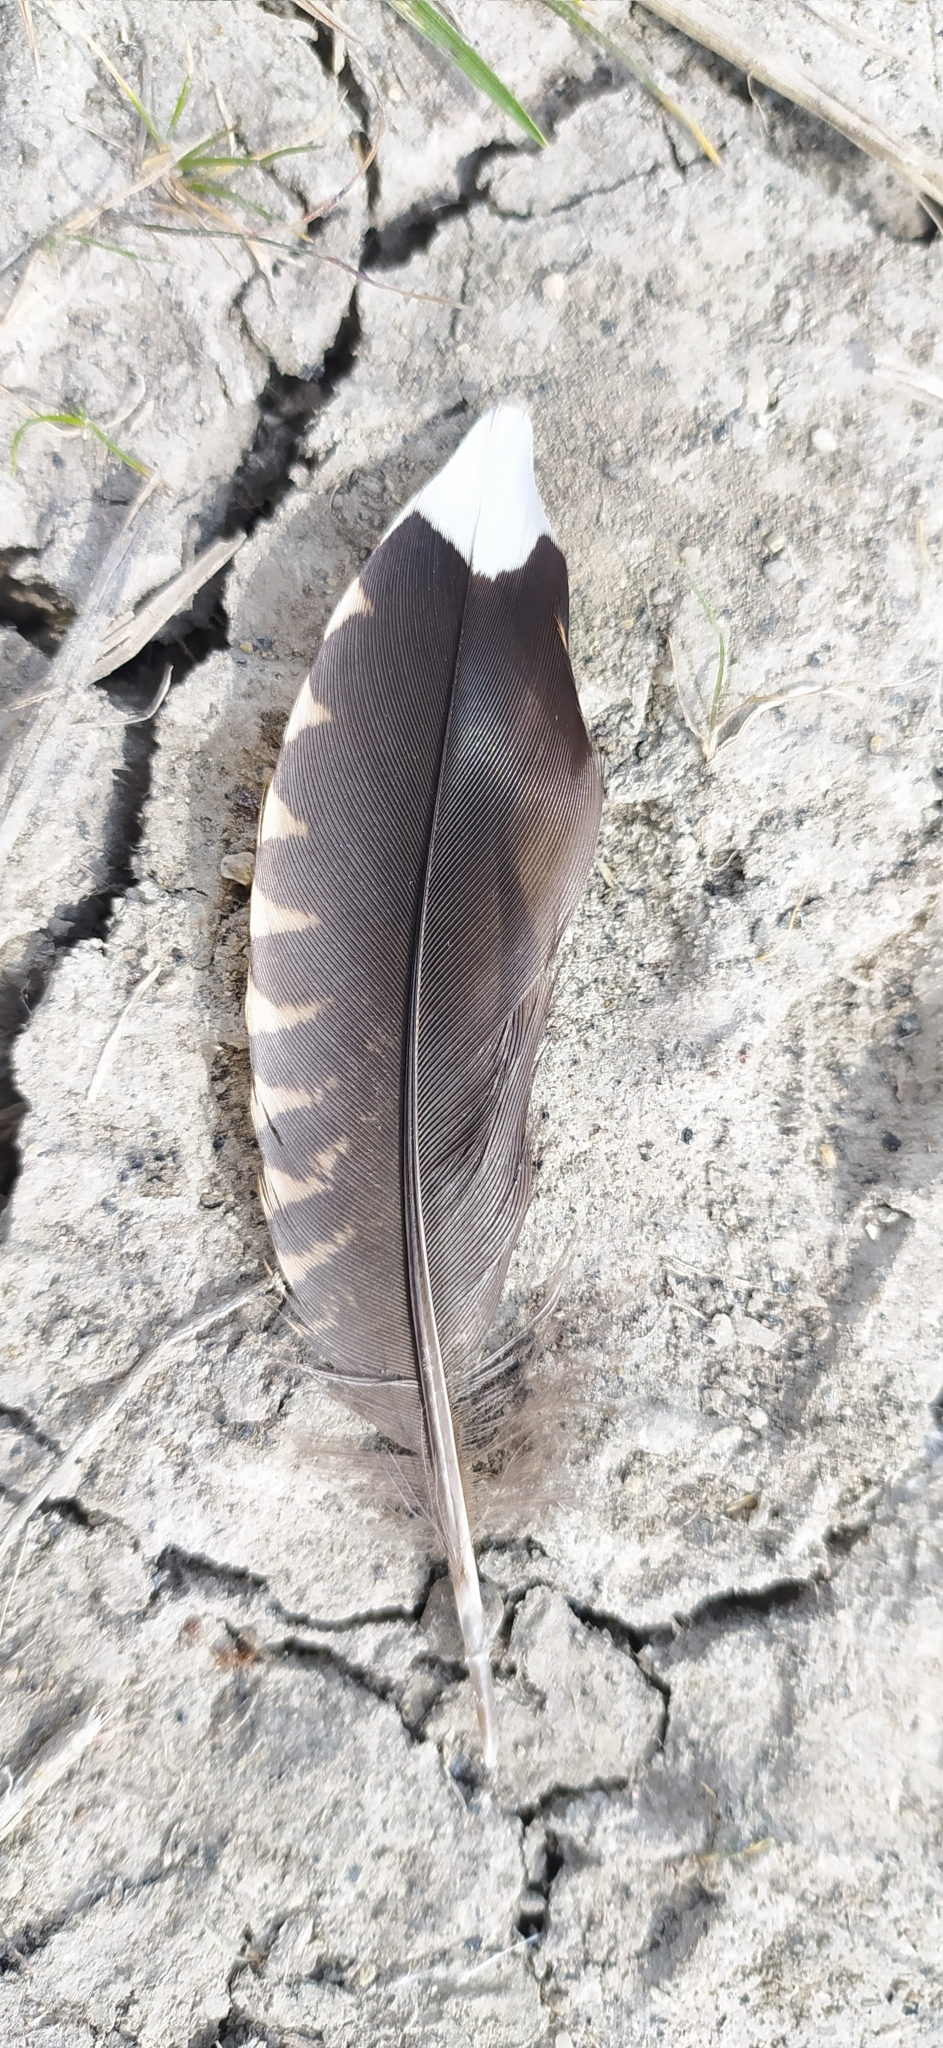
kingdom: Animalia
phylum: Chordata
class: Aves
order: Charadriiformes
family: Scolopacidae
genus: Scolopax
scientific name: Scolopax rusticola
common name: Eurasian woodcock
